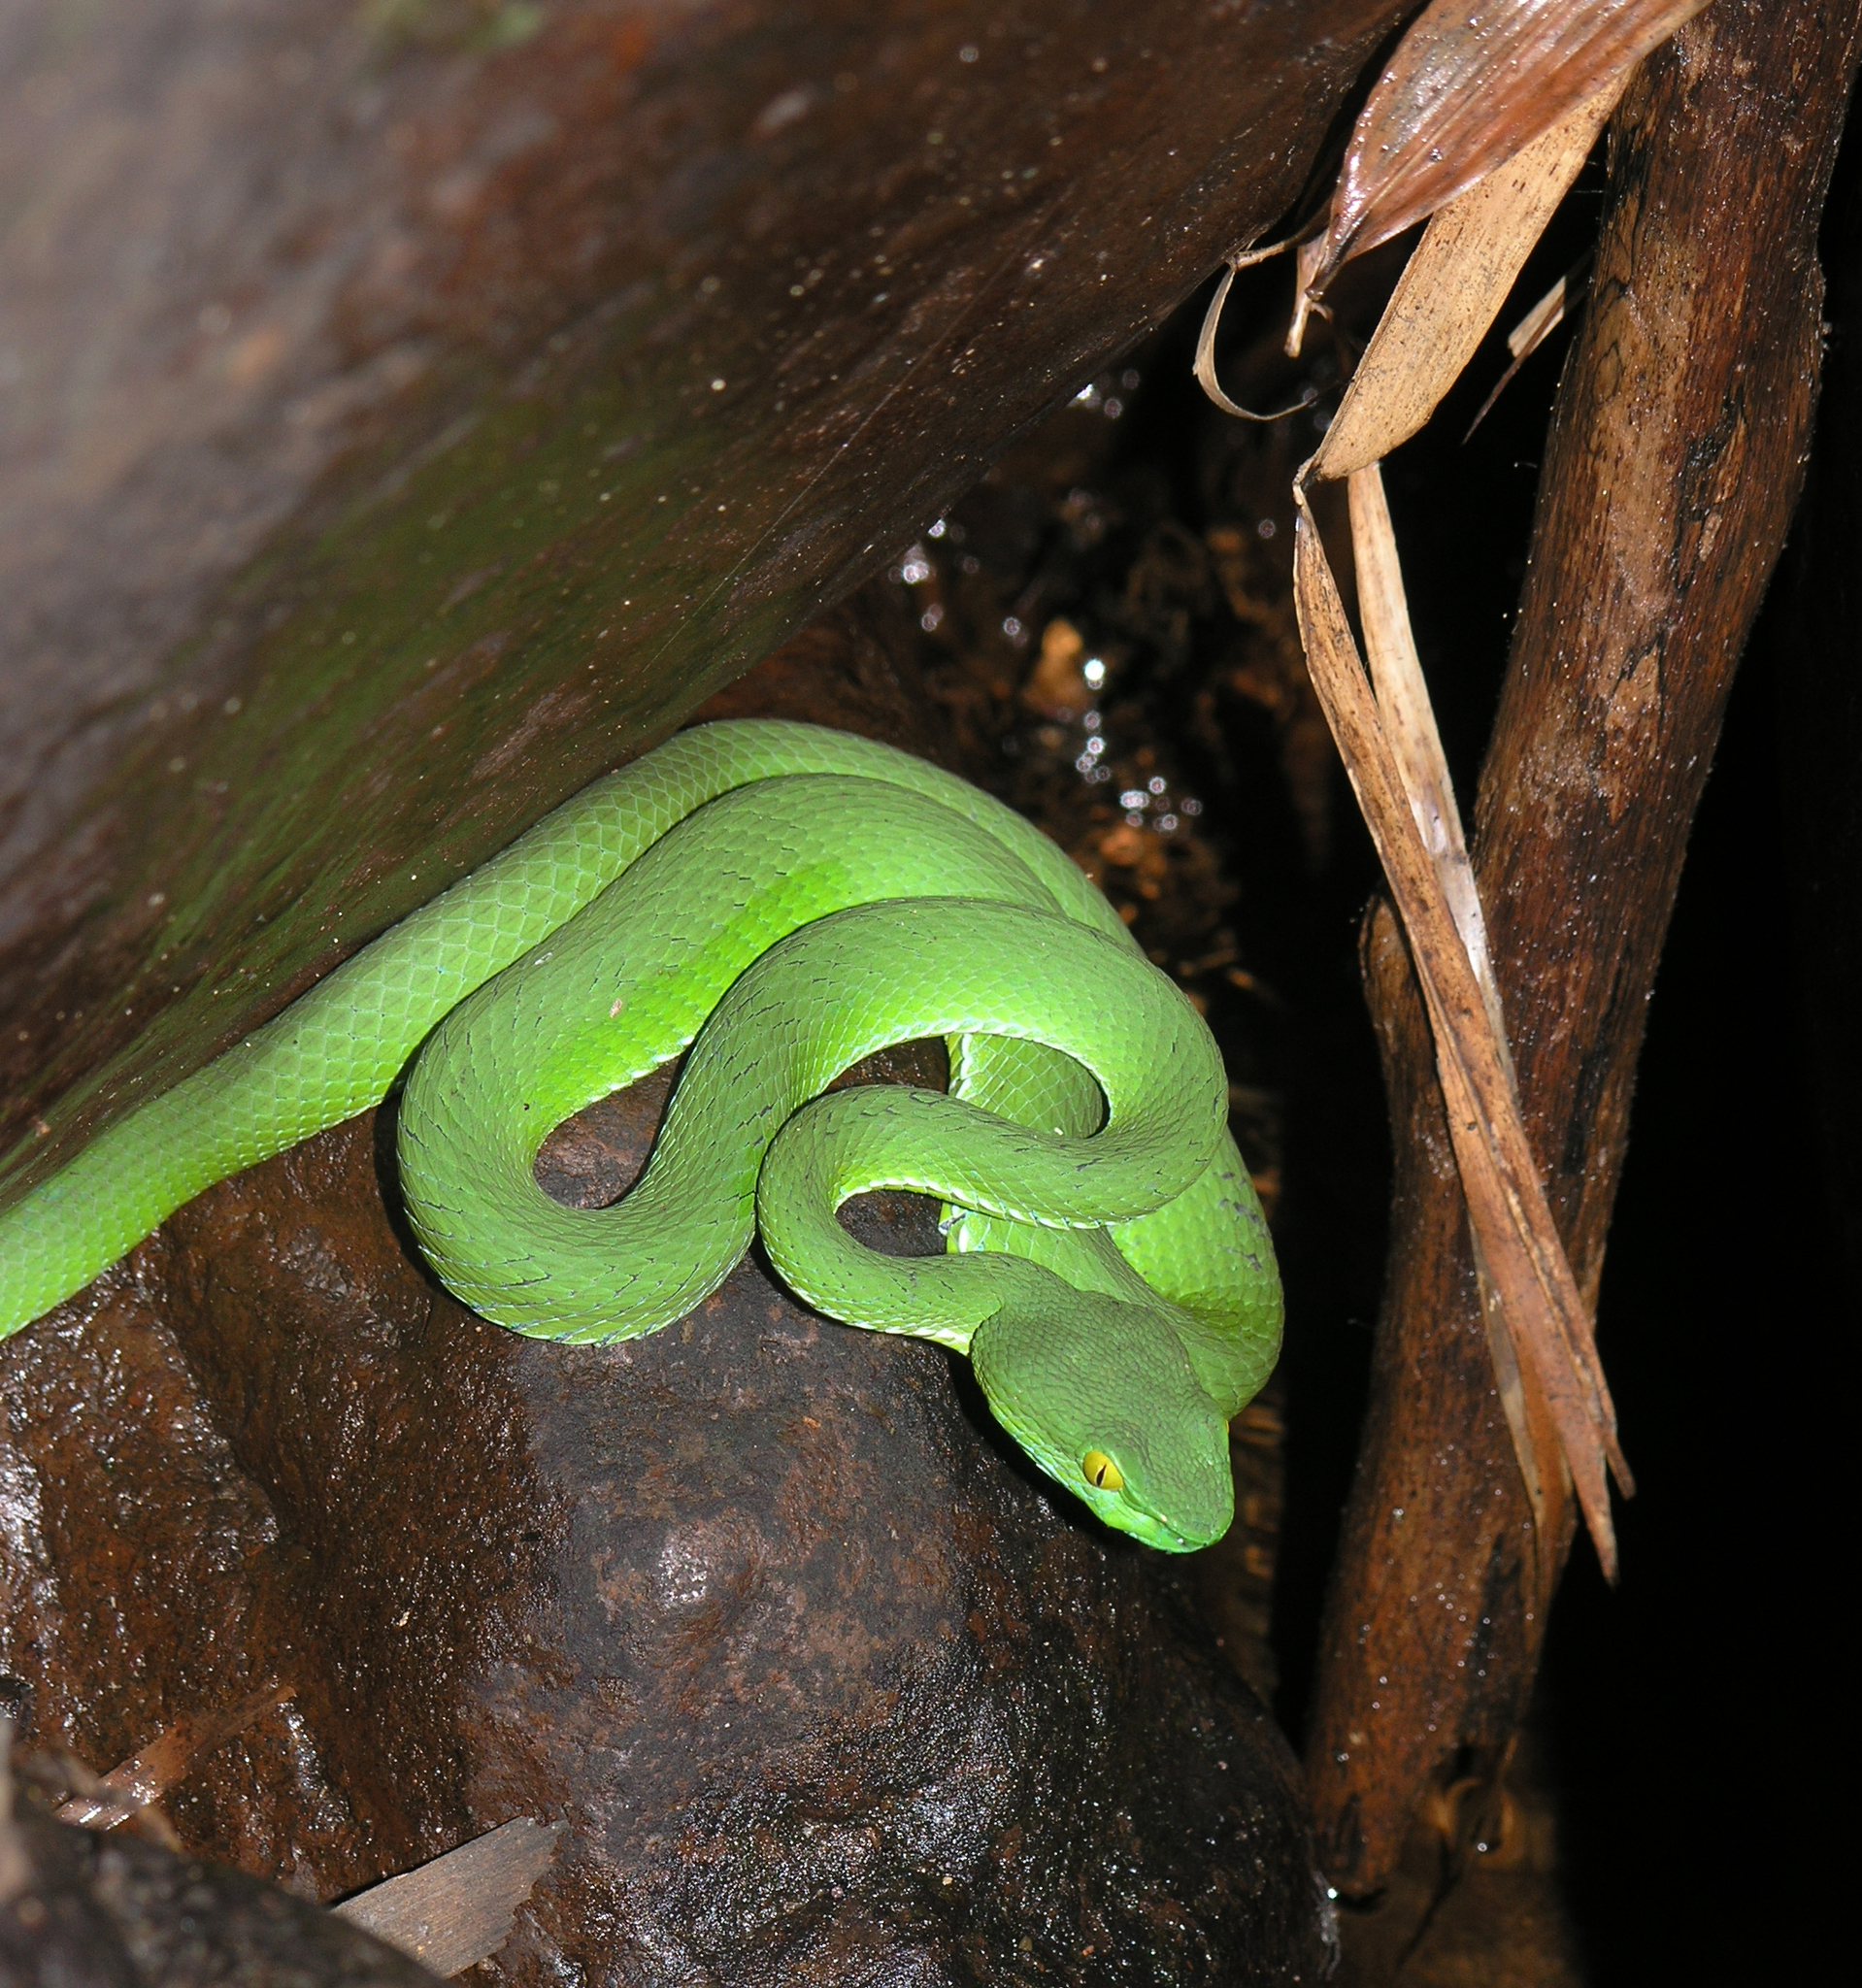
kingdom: Animalia
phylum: Chordata
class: Squamata
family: Viperidae
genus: Trimeresurus
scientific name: Trimeresurus cardamomensis
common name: Cardamom mountains green pitviper
